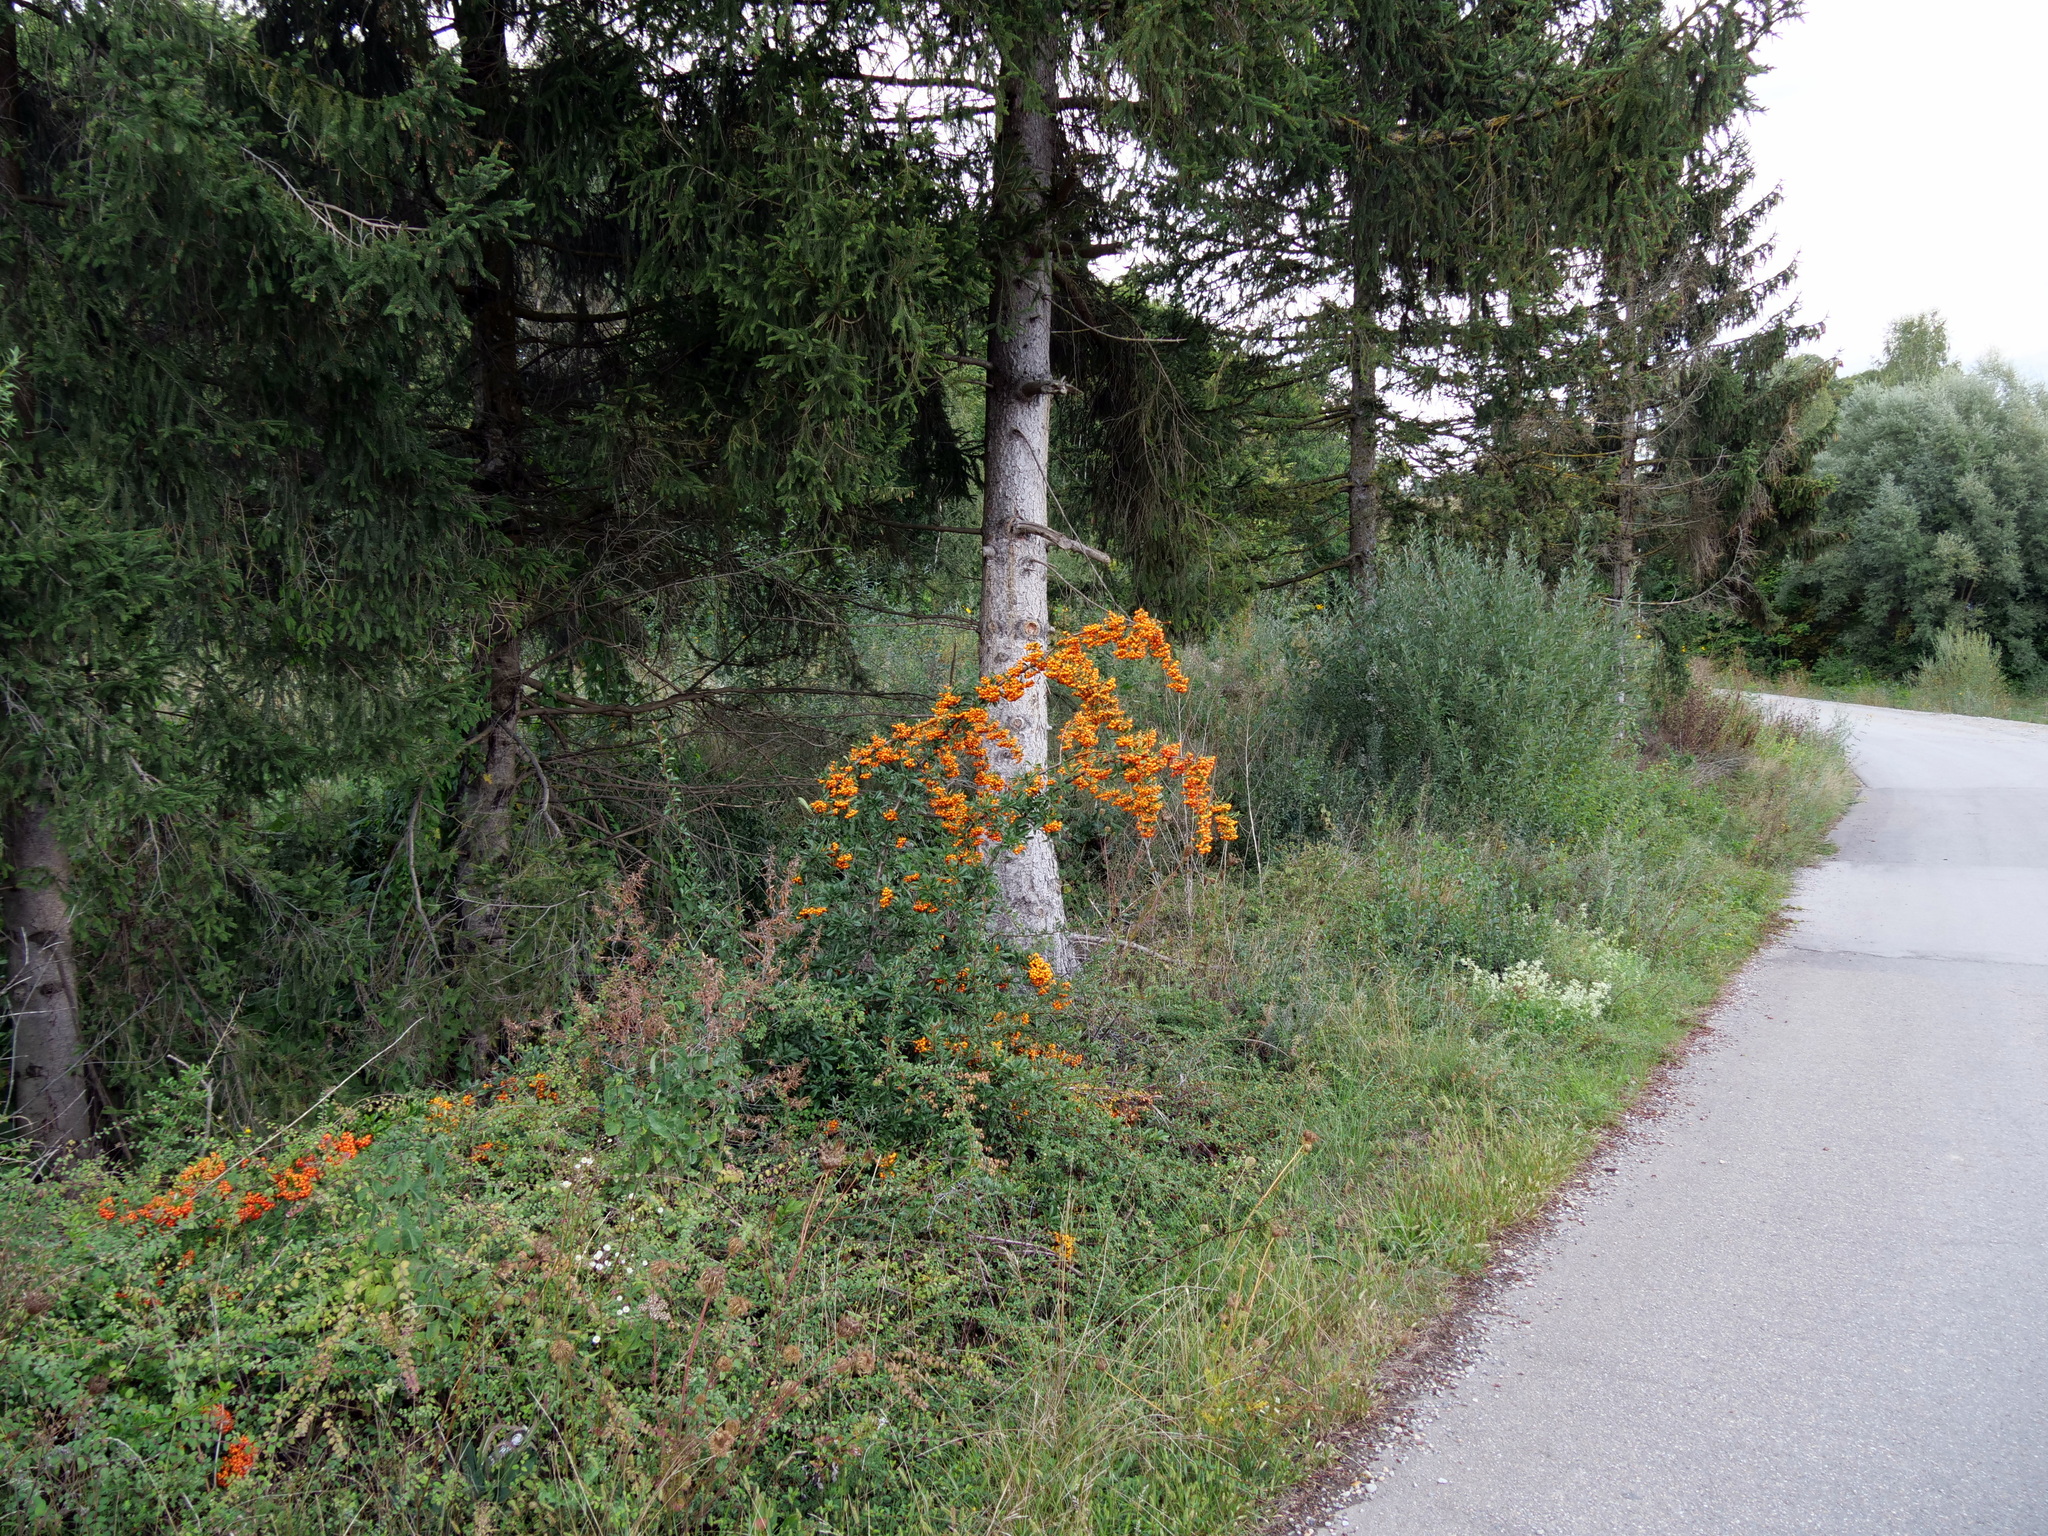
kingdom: Plantae
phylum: Tracheophyta
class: Magnoliopsida
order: Rosales
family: Rosaceae
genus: Pyracantha
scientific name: Pyracantha coccinea
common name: Firethorn
